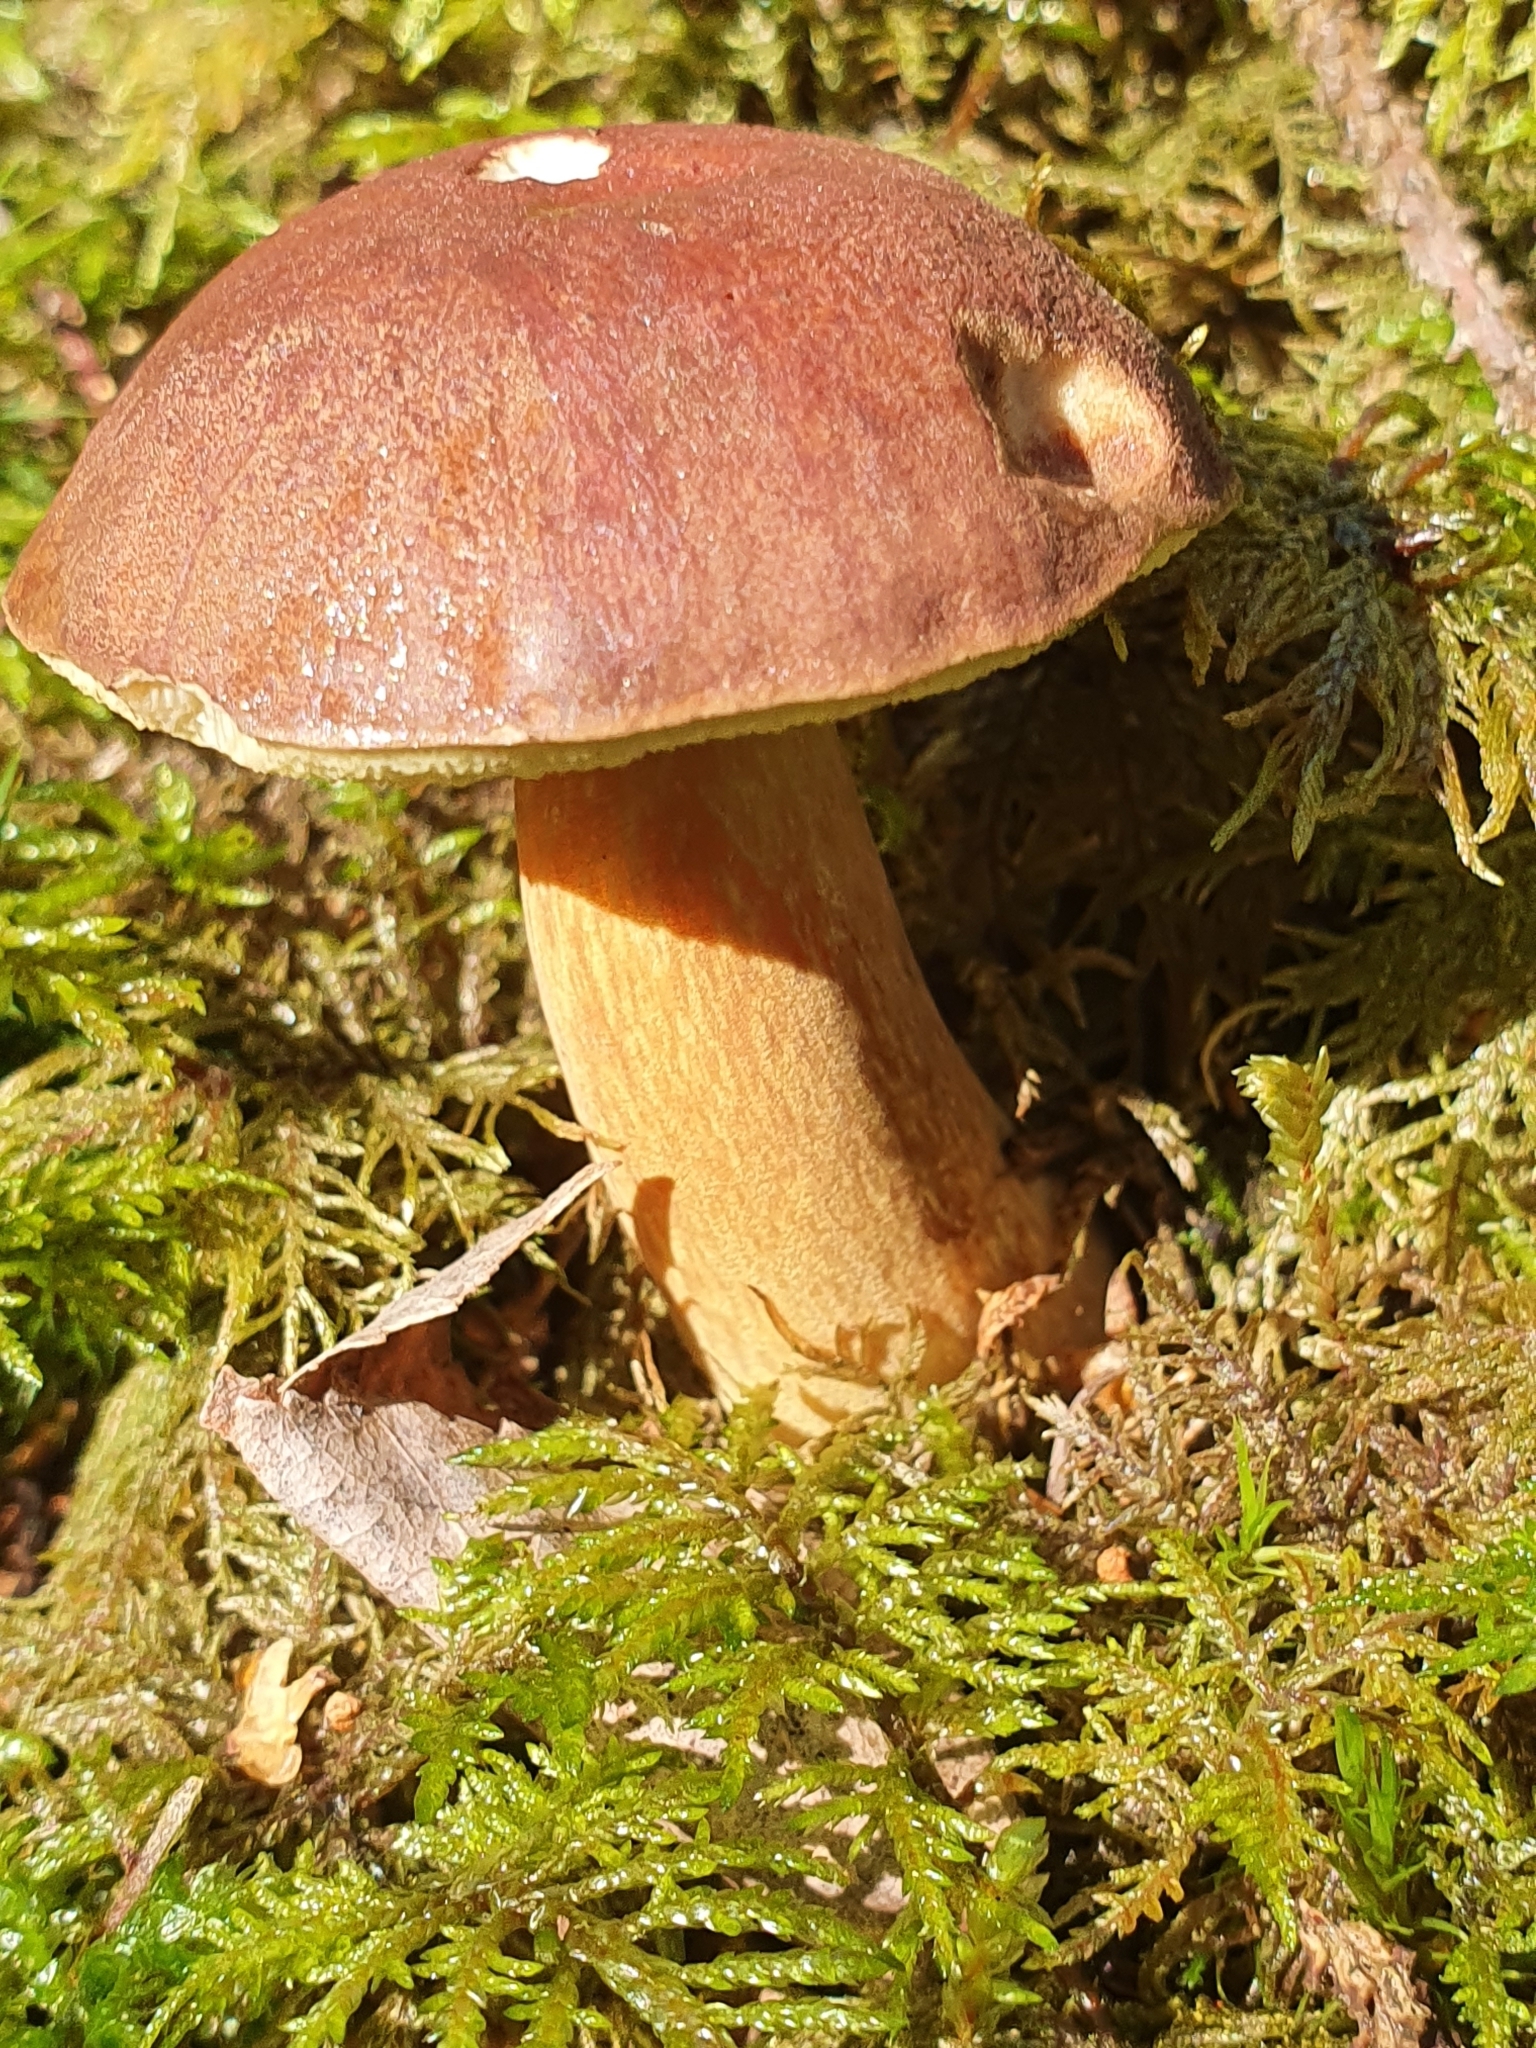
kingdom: Fungi
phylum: Basidiomycota
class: Agaricomycetes
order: Boletales
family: Boletaceae
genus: Imleria
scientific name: Imleria badia
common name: Bay bolete
